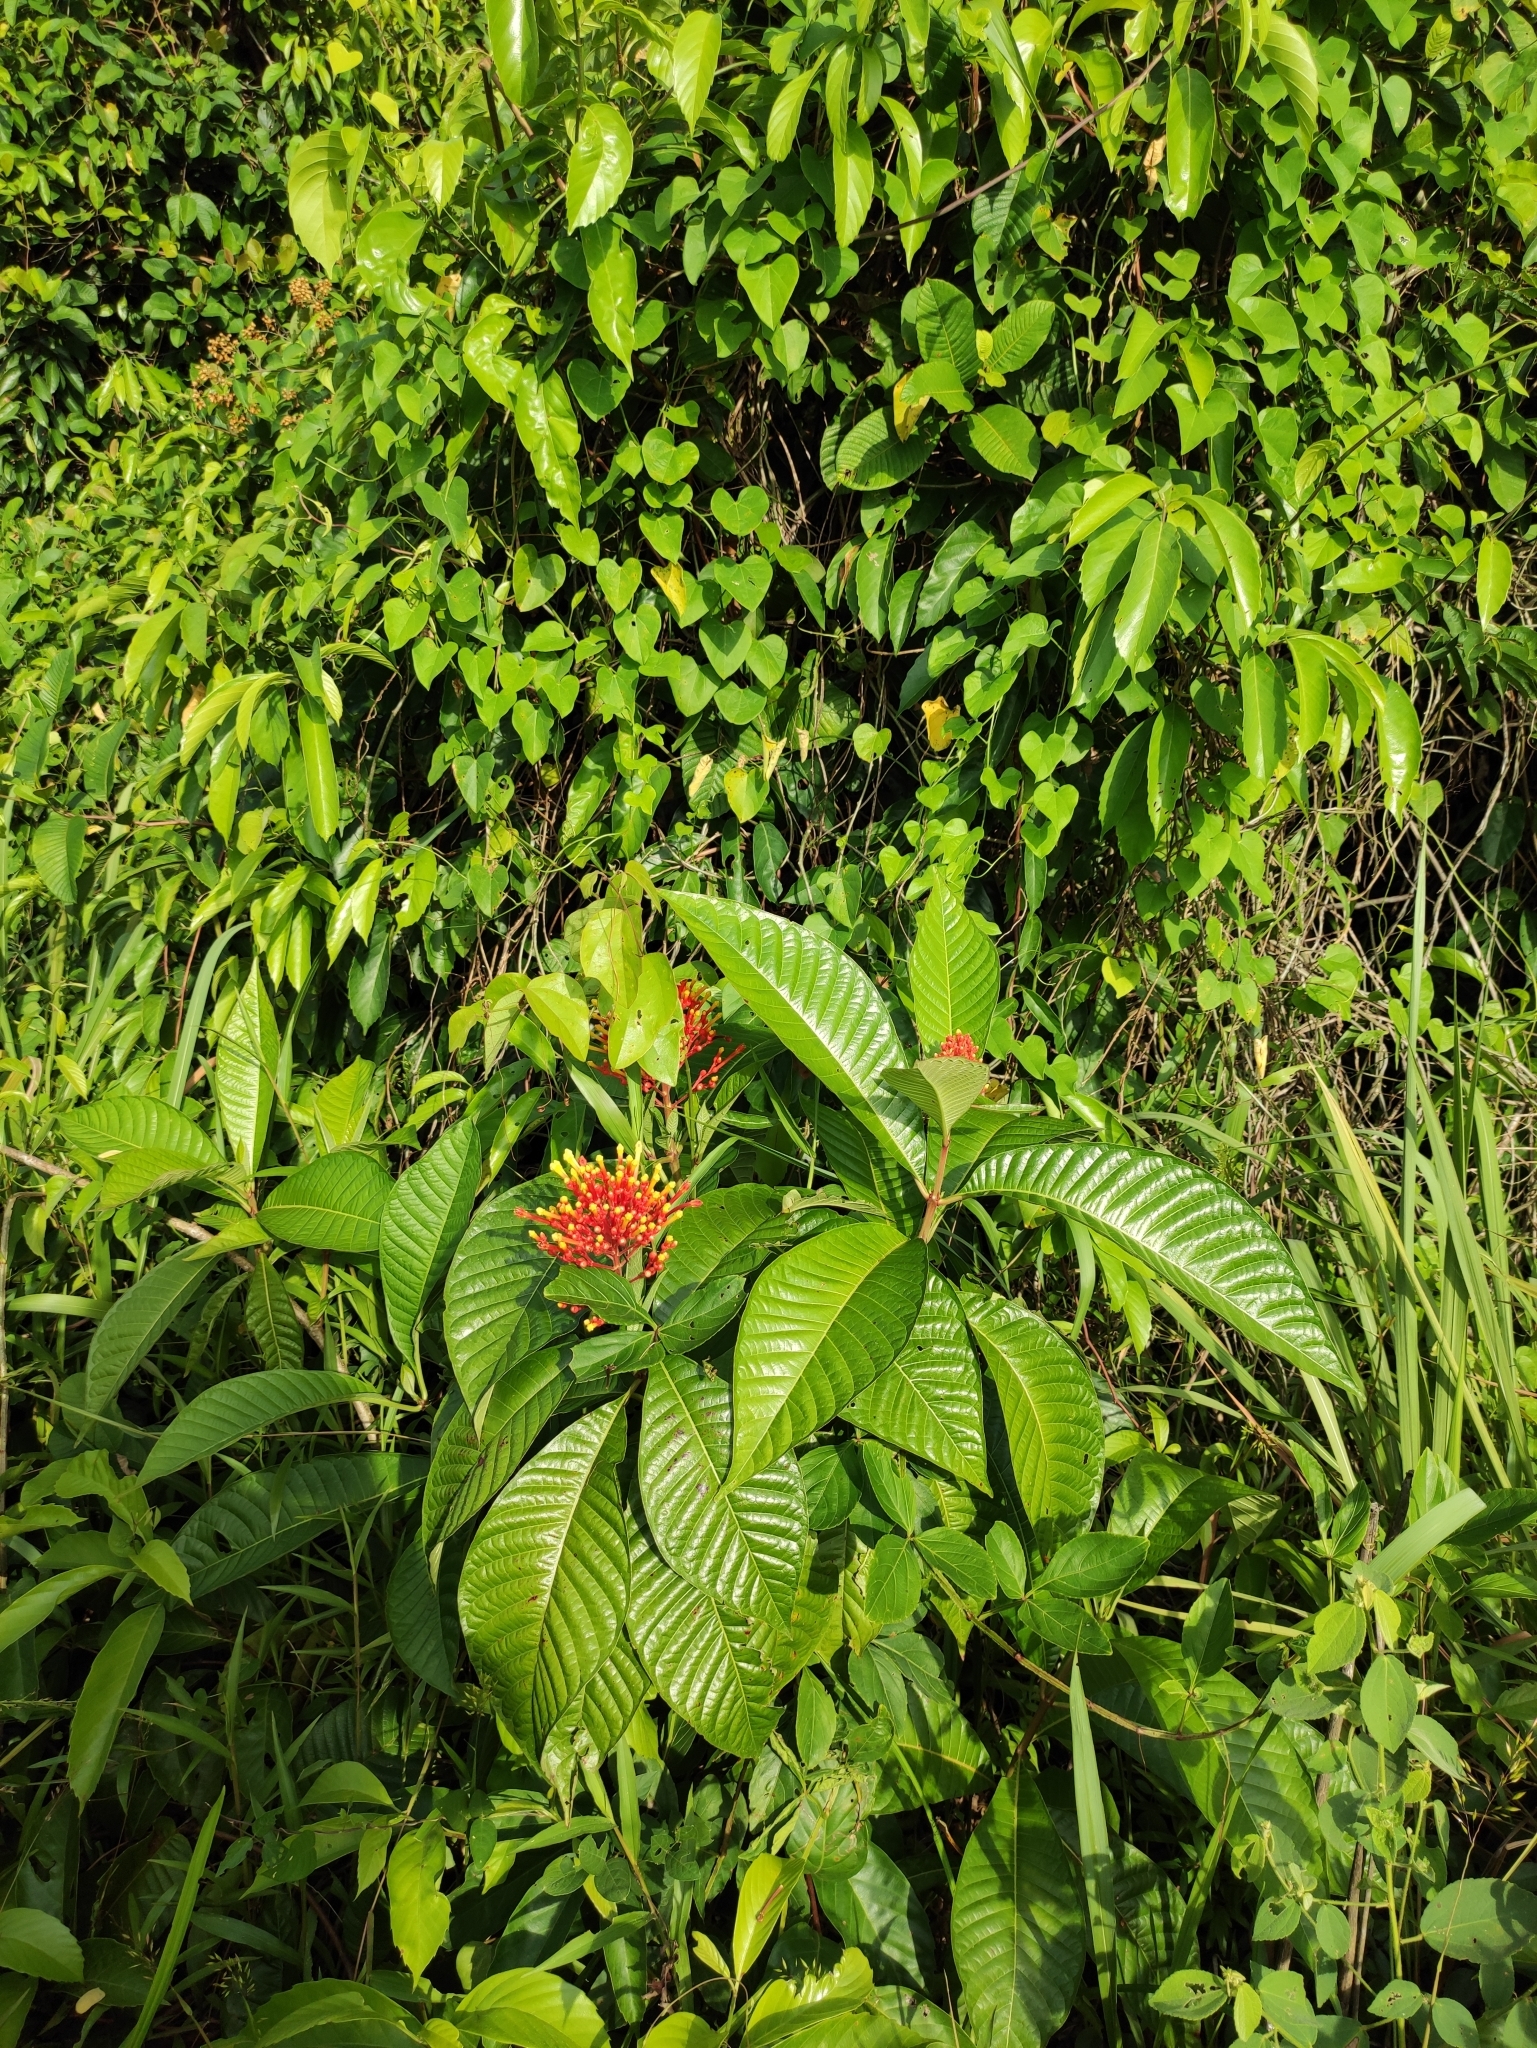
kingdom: Plantae
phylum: Tracheophyta
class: Magnoliopsida
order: Gentianales
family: Rubiaceae
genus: Isertia
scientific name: Isertia haenkeana
